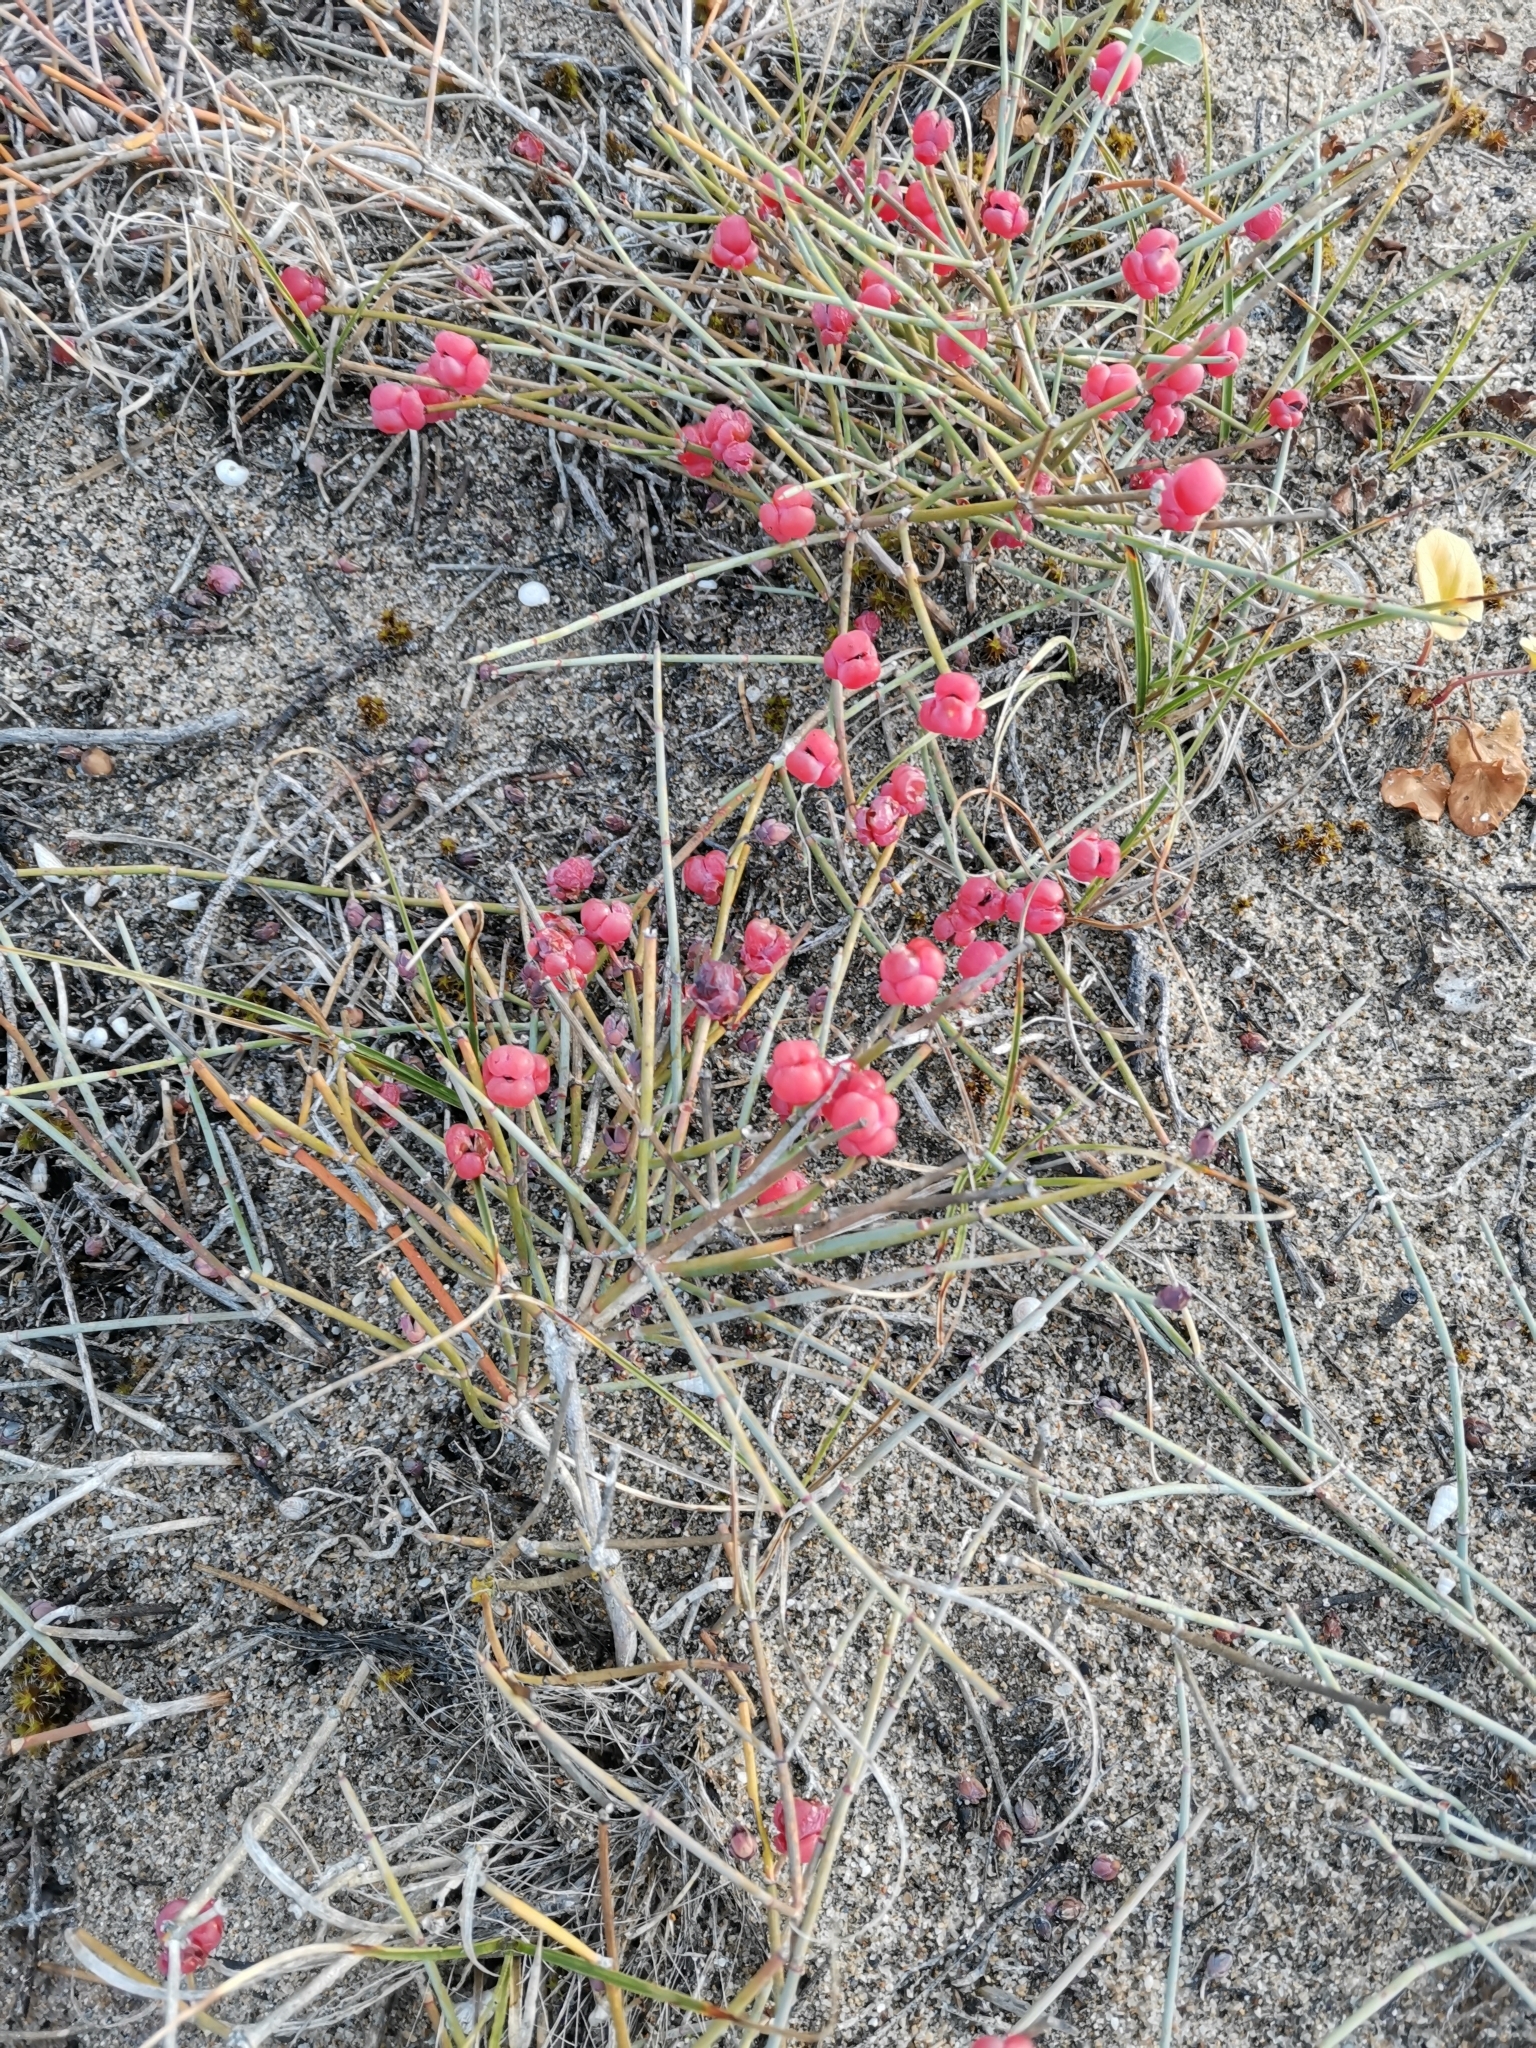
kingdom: Plantae
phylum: Tracheophyta
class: Gnetopsida
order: Ephedrales
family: Ephedraceae
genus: Ephedra
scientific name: Ephedra distachya
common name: Sea grape
